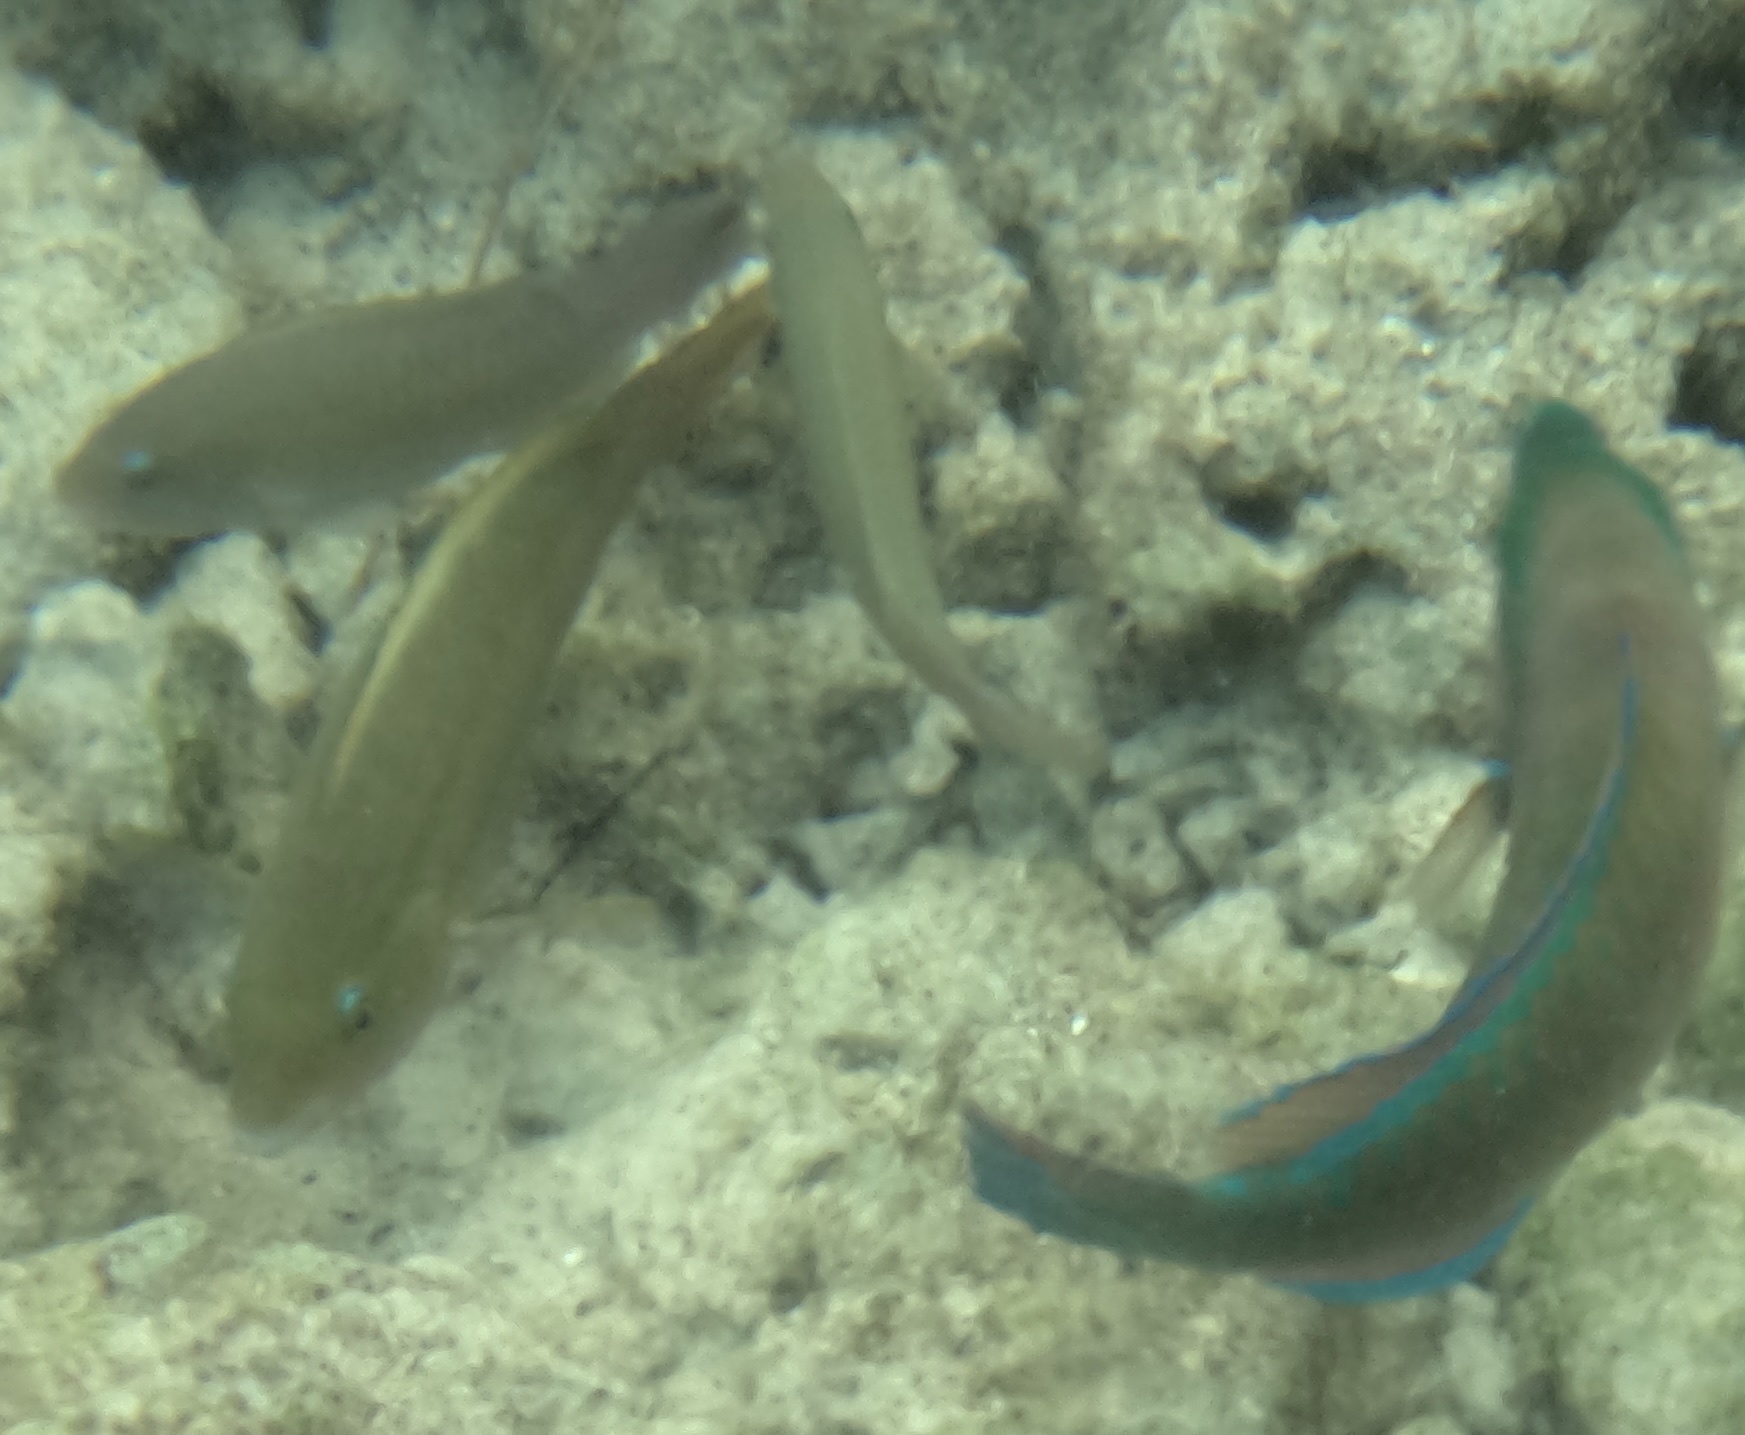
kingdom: Animalia
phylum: Chordata
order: Perciformes
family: Scaridae
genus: Scarus
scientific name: Scarus taeniopterus
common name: Princess parrotfish
